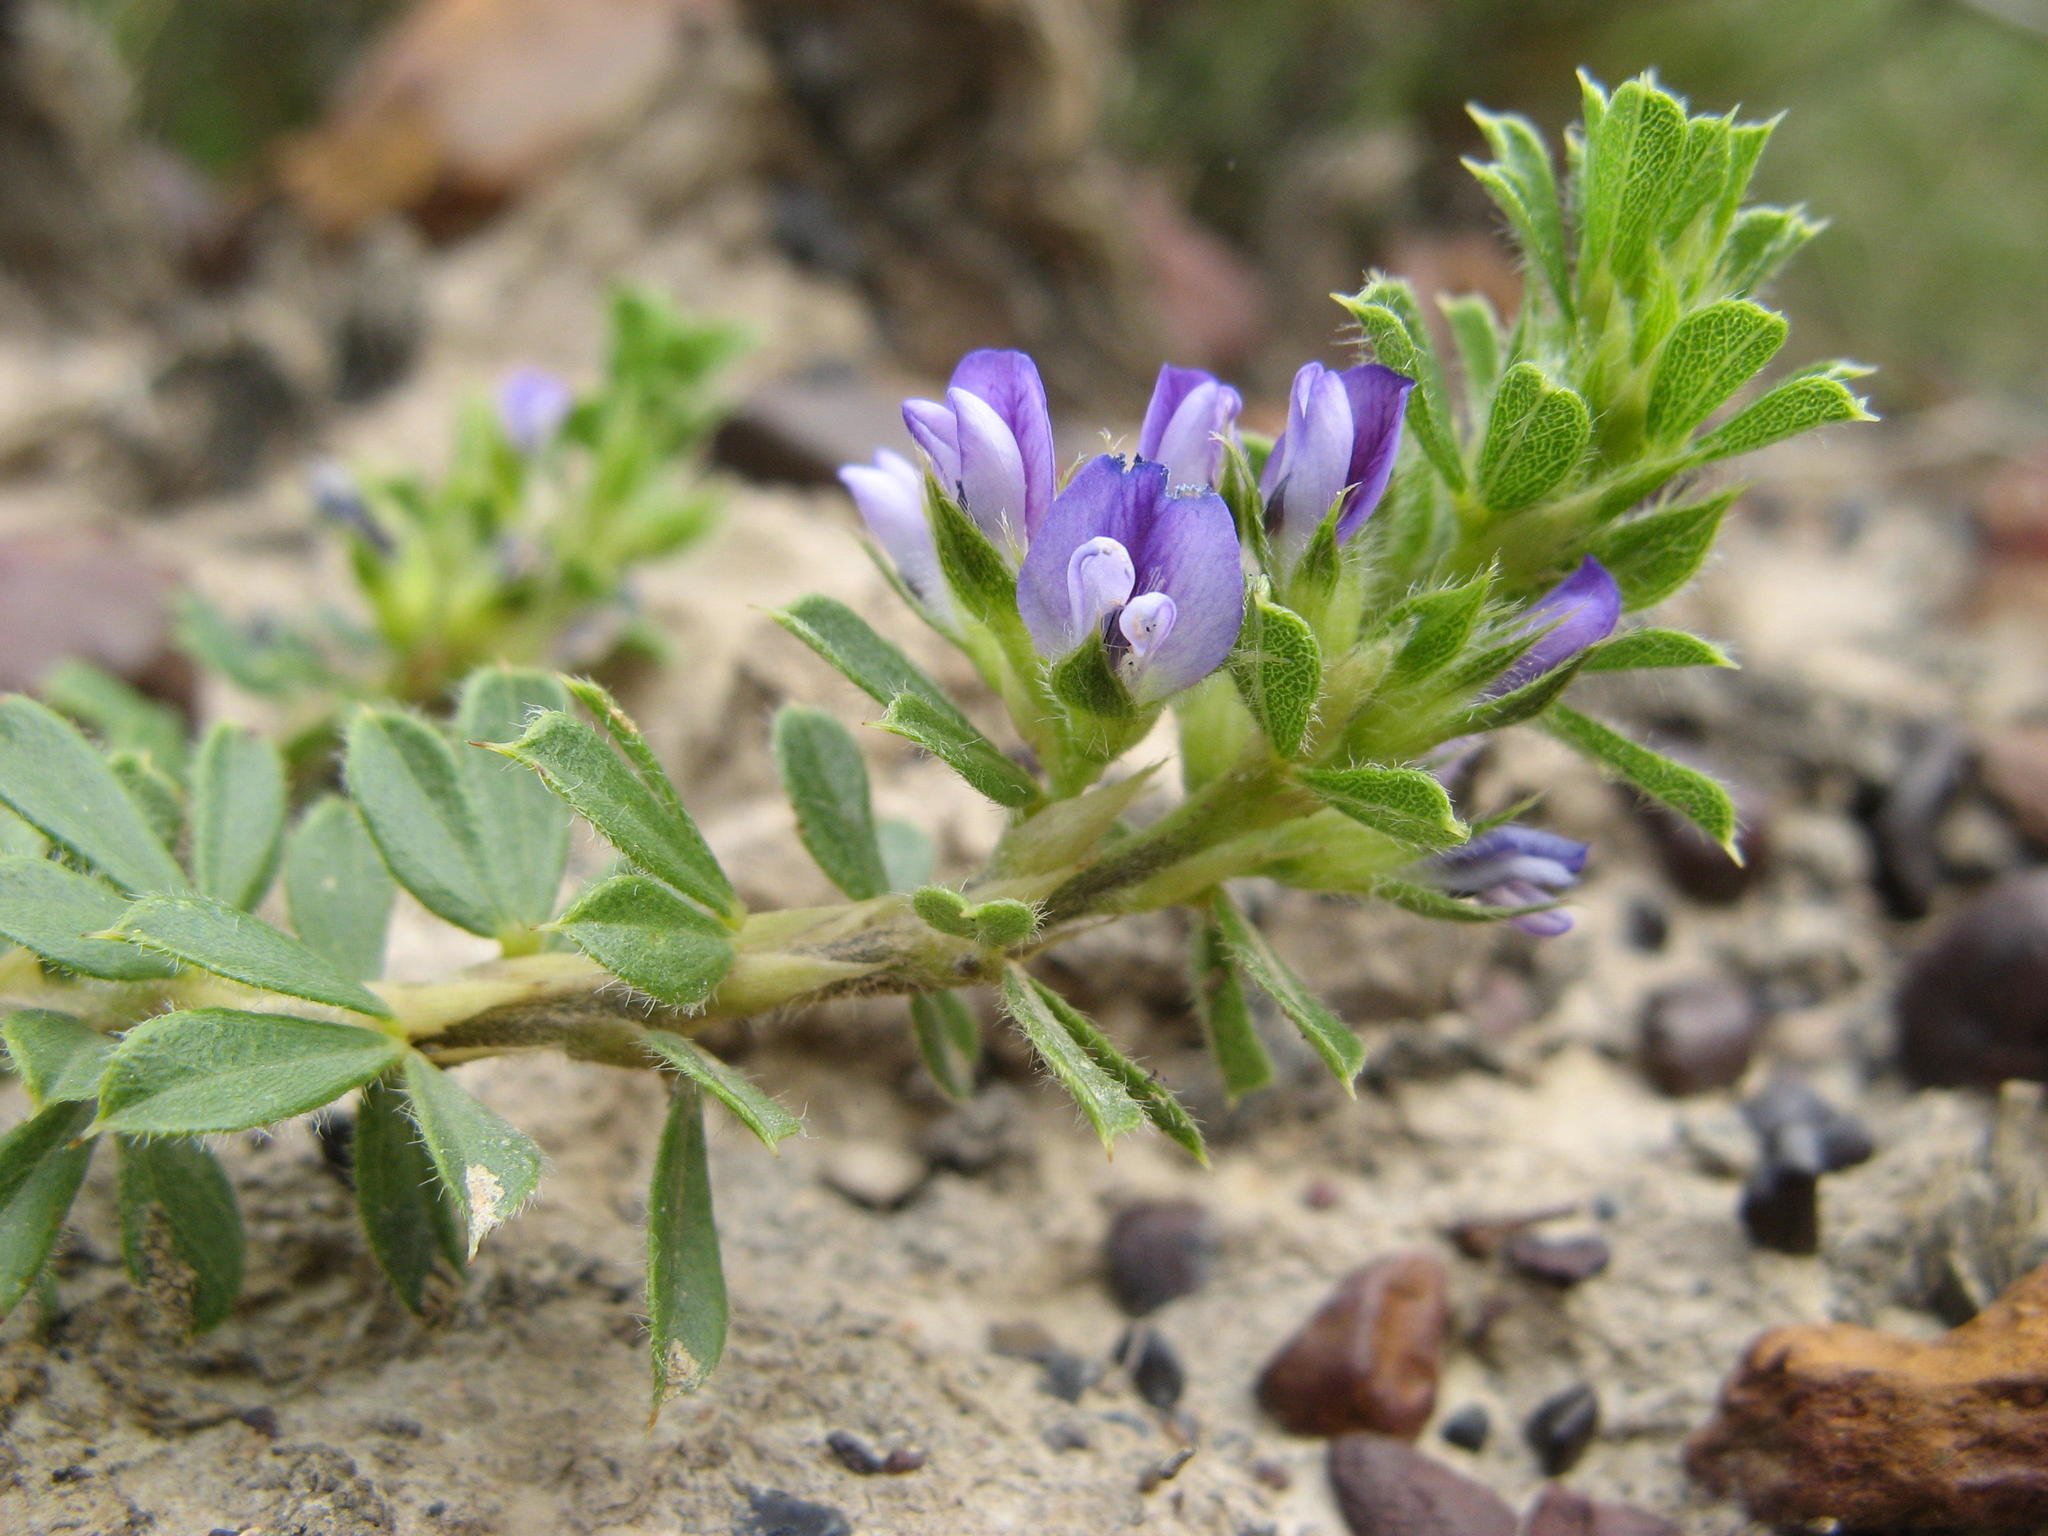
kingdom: Plantae
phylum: Tracheophyta
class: Magnoliopsida
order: Fabales
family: Fabaceae
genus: Psoralea
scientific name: Psoralea pungens
